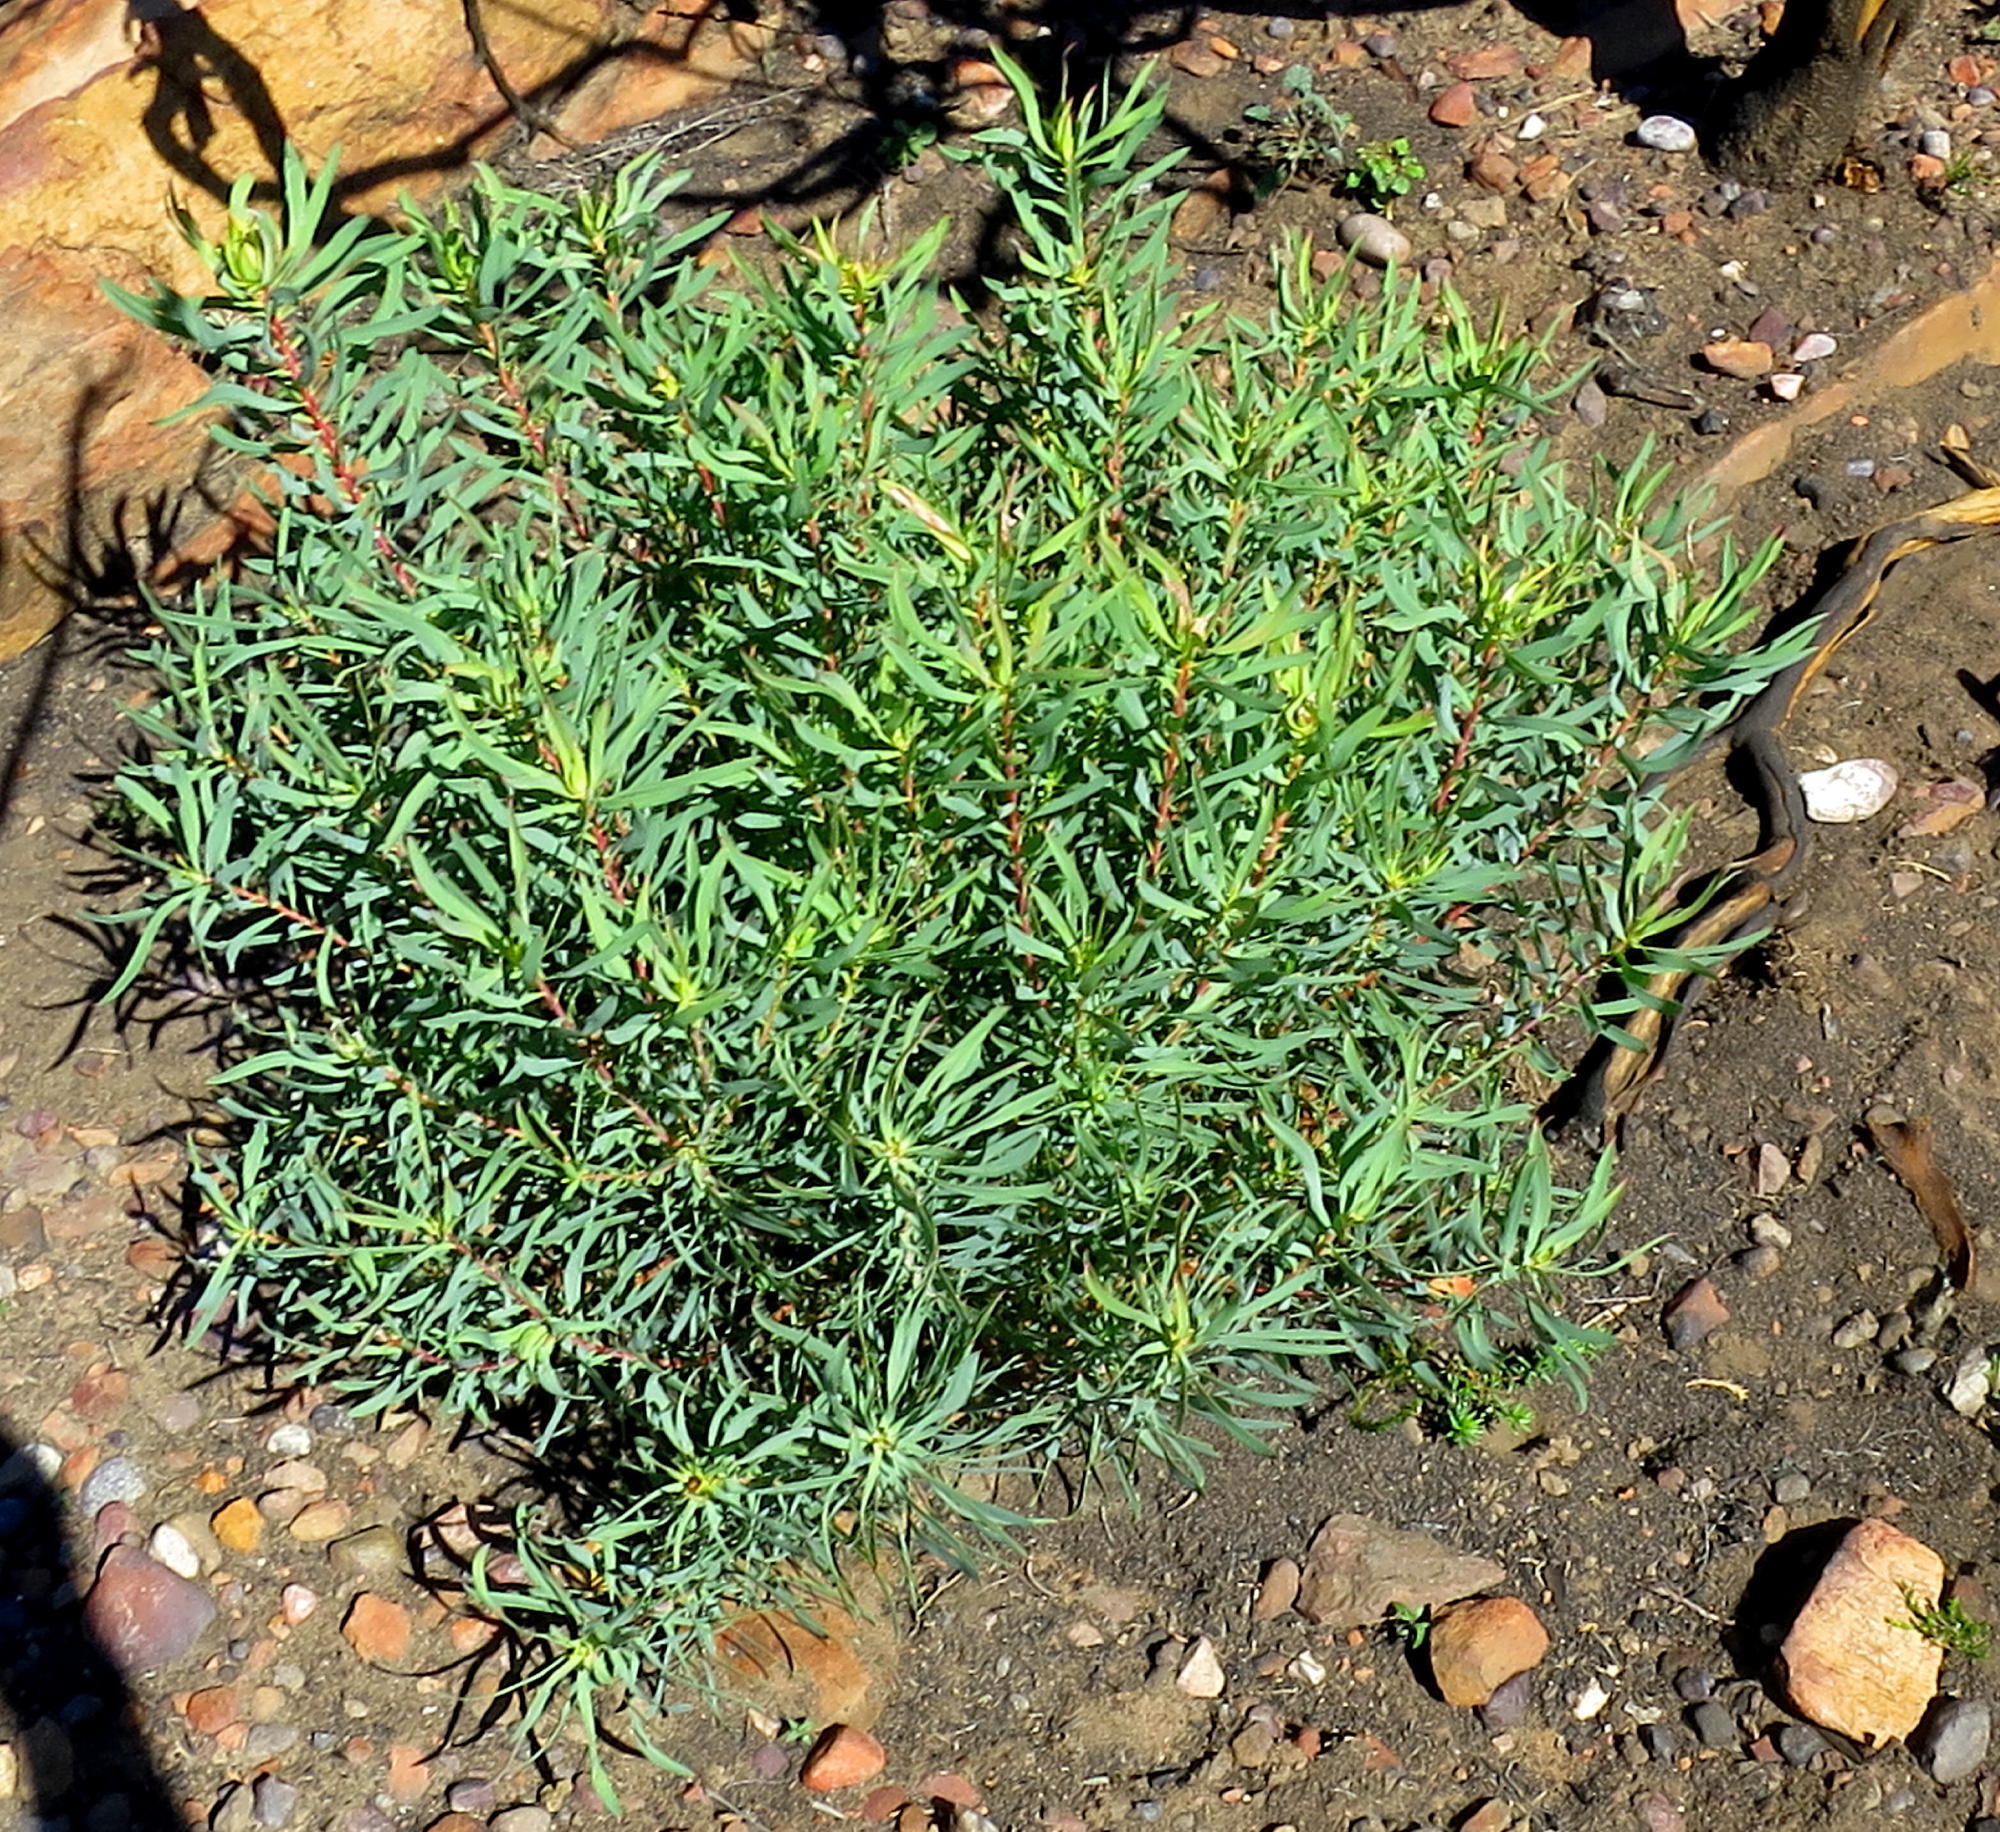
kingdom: Plantae
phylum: Tracheophyta
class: Magnoliopsida
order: Proteales
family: Proteaceae
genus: Leucadendron
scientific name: Leucadendron salignum
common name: Common sunshine conebush
